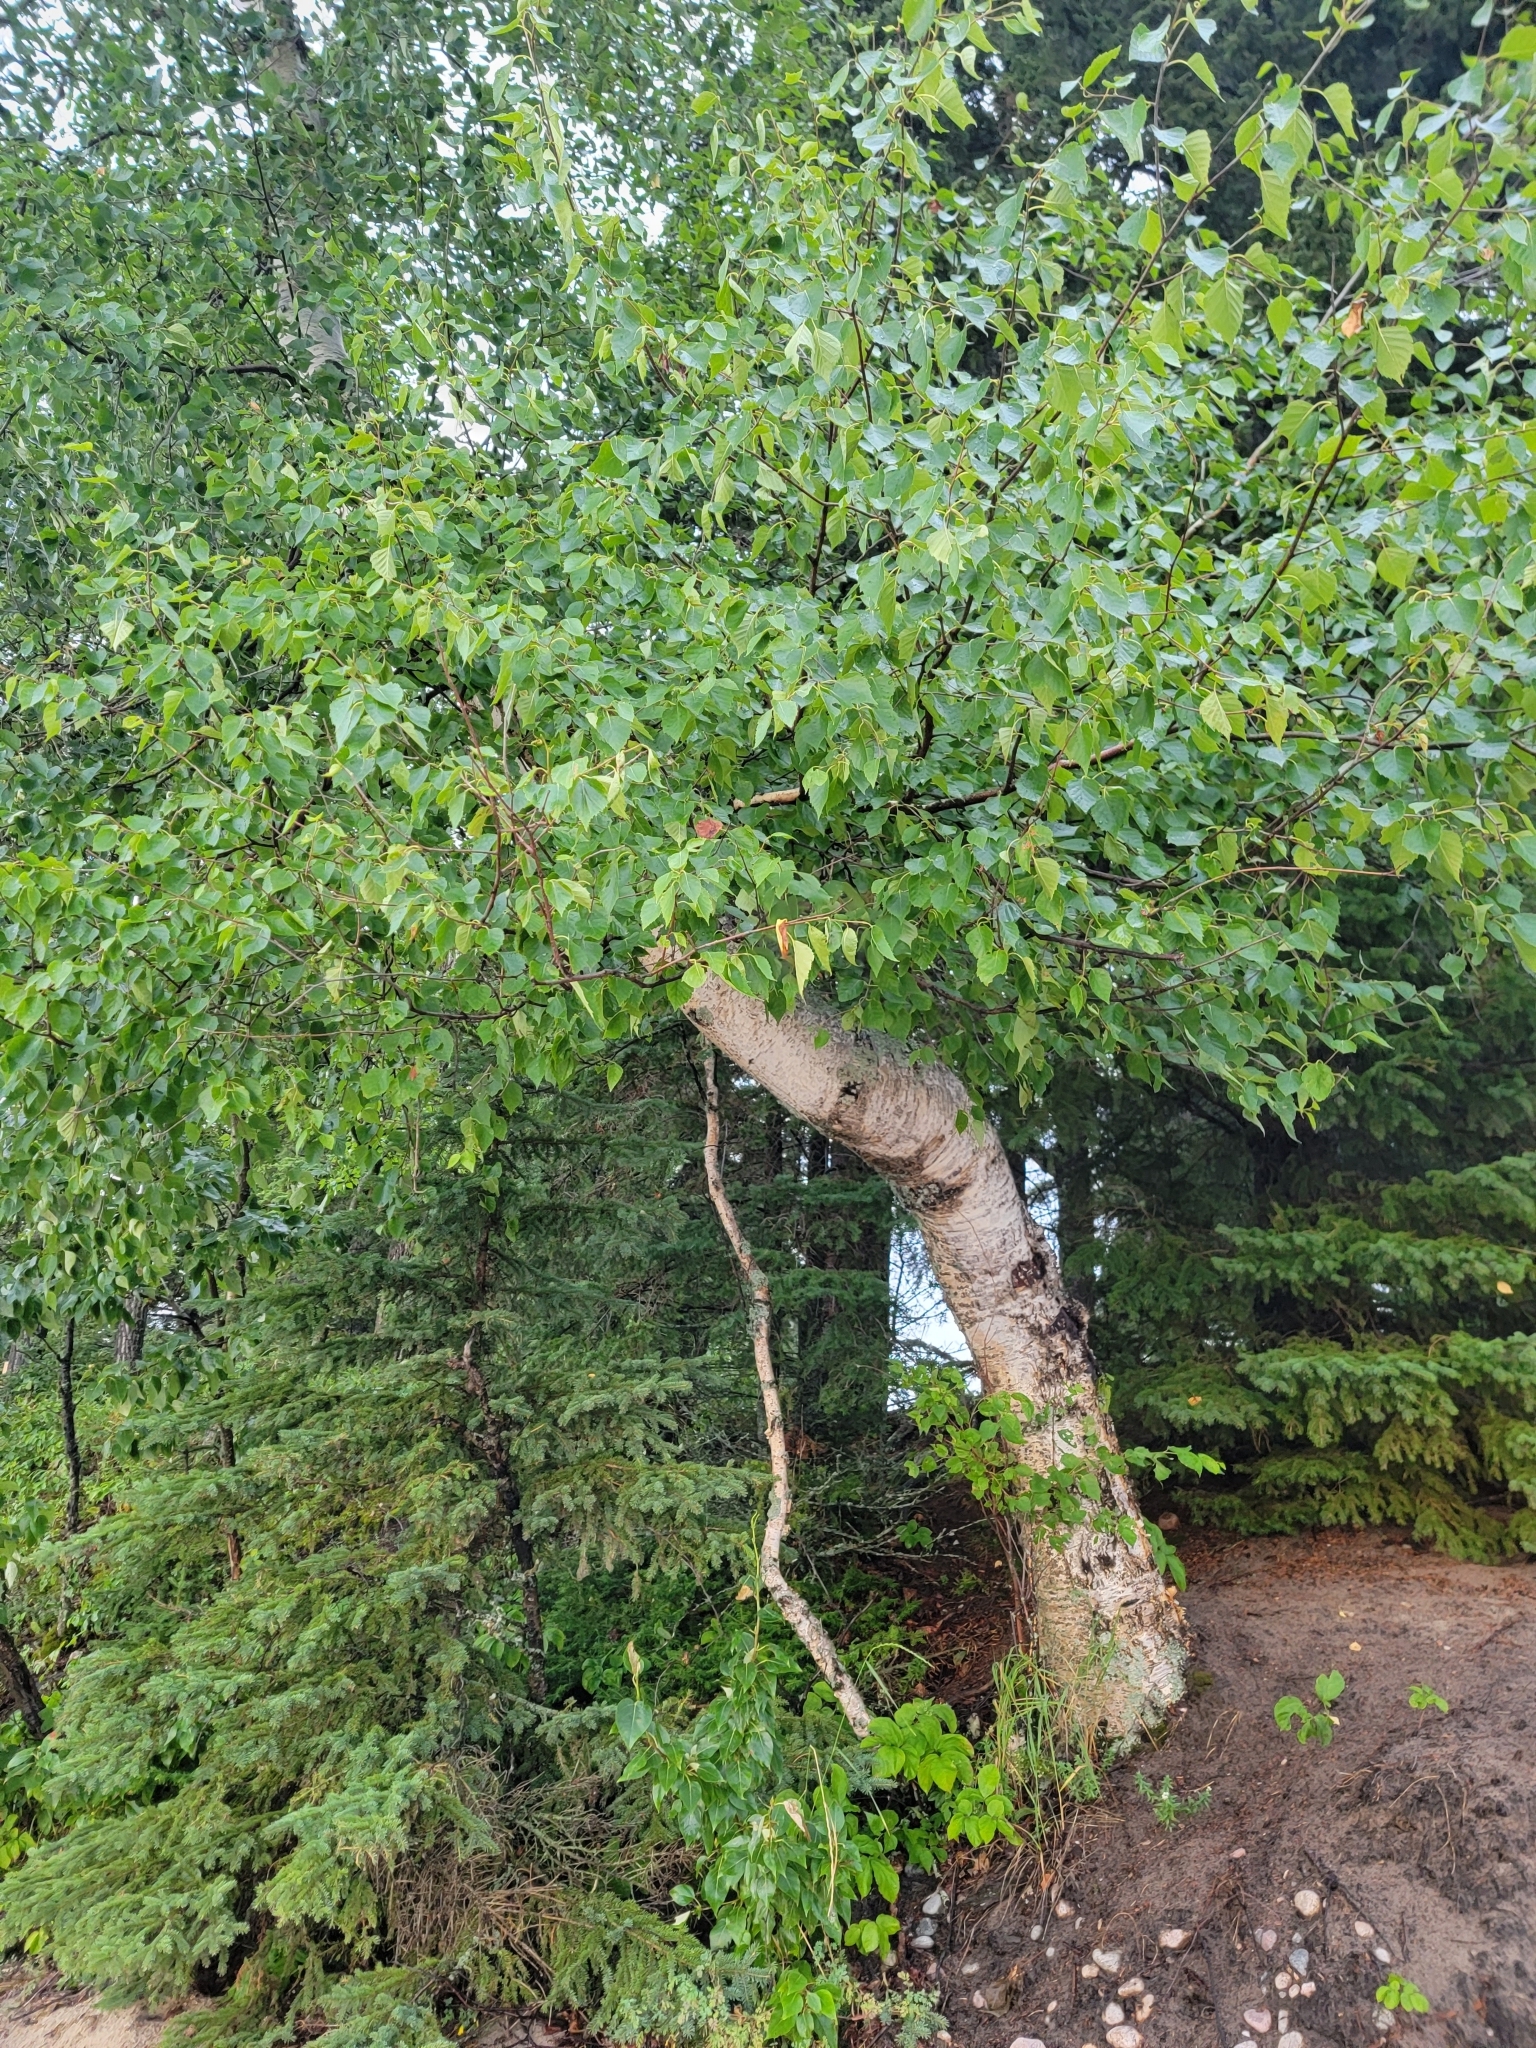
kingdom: Plantae
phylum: Tracheophyta
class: Magnoliopsida
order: Fagales
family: Betulaceae
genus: Betula
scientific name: Betula papyrifera
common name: Paper birch
